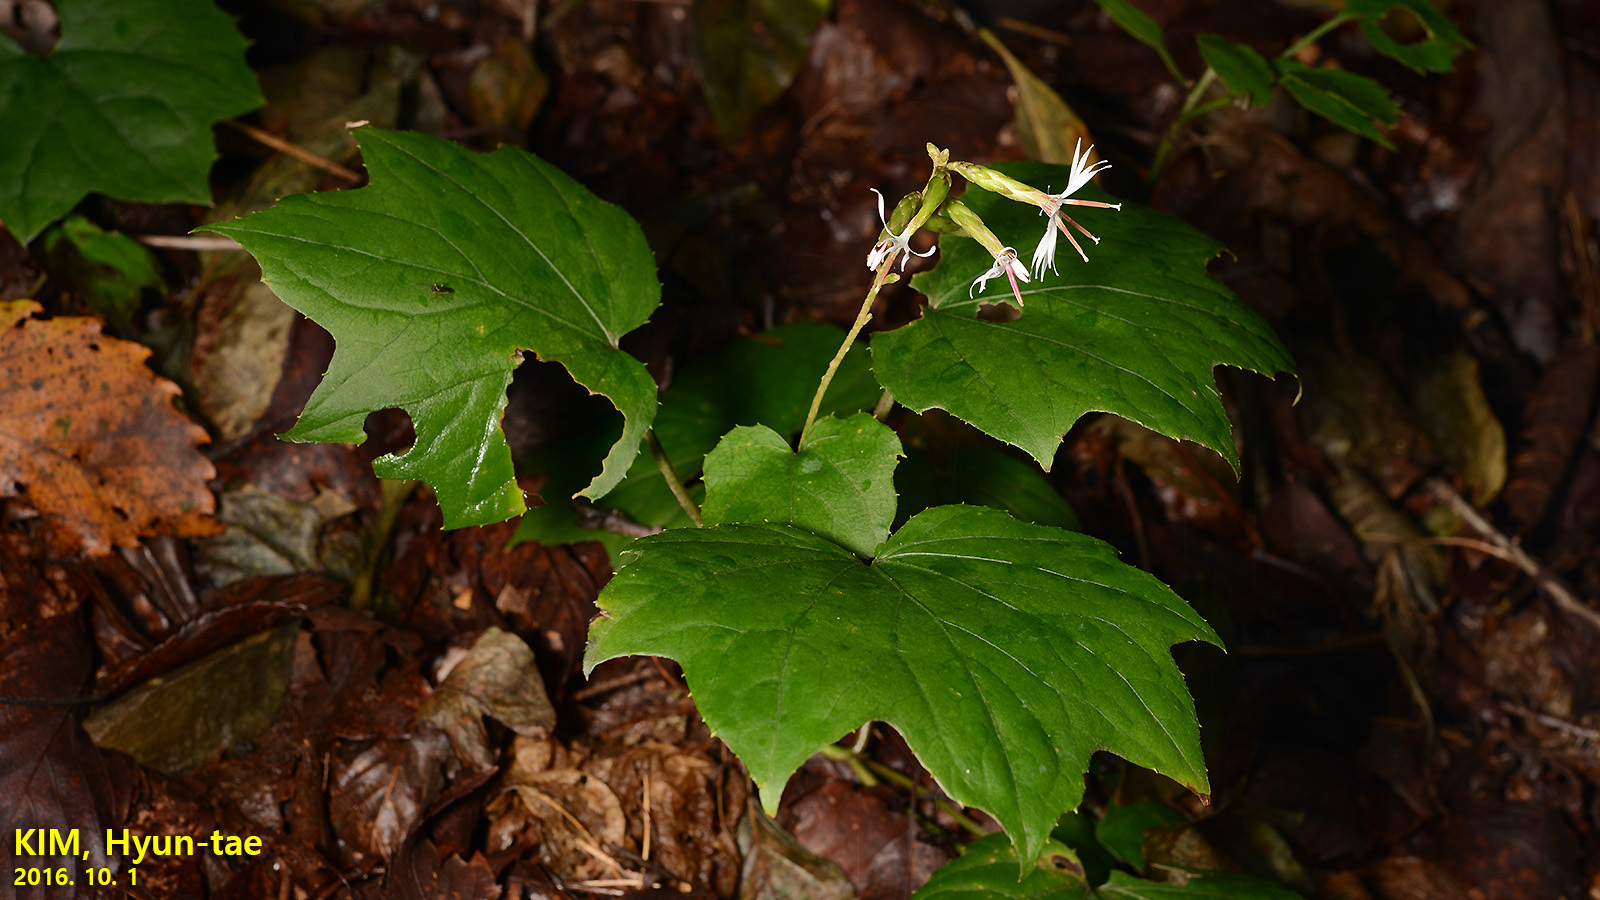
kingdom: Plantae
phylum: Tracheophyta
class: Magnoliopsida
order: Asterales
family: Asteraceae
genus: Ainsliaea
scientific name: Ainsliaea acerifolia
